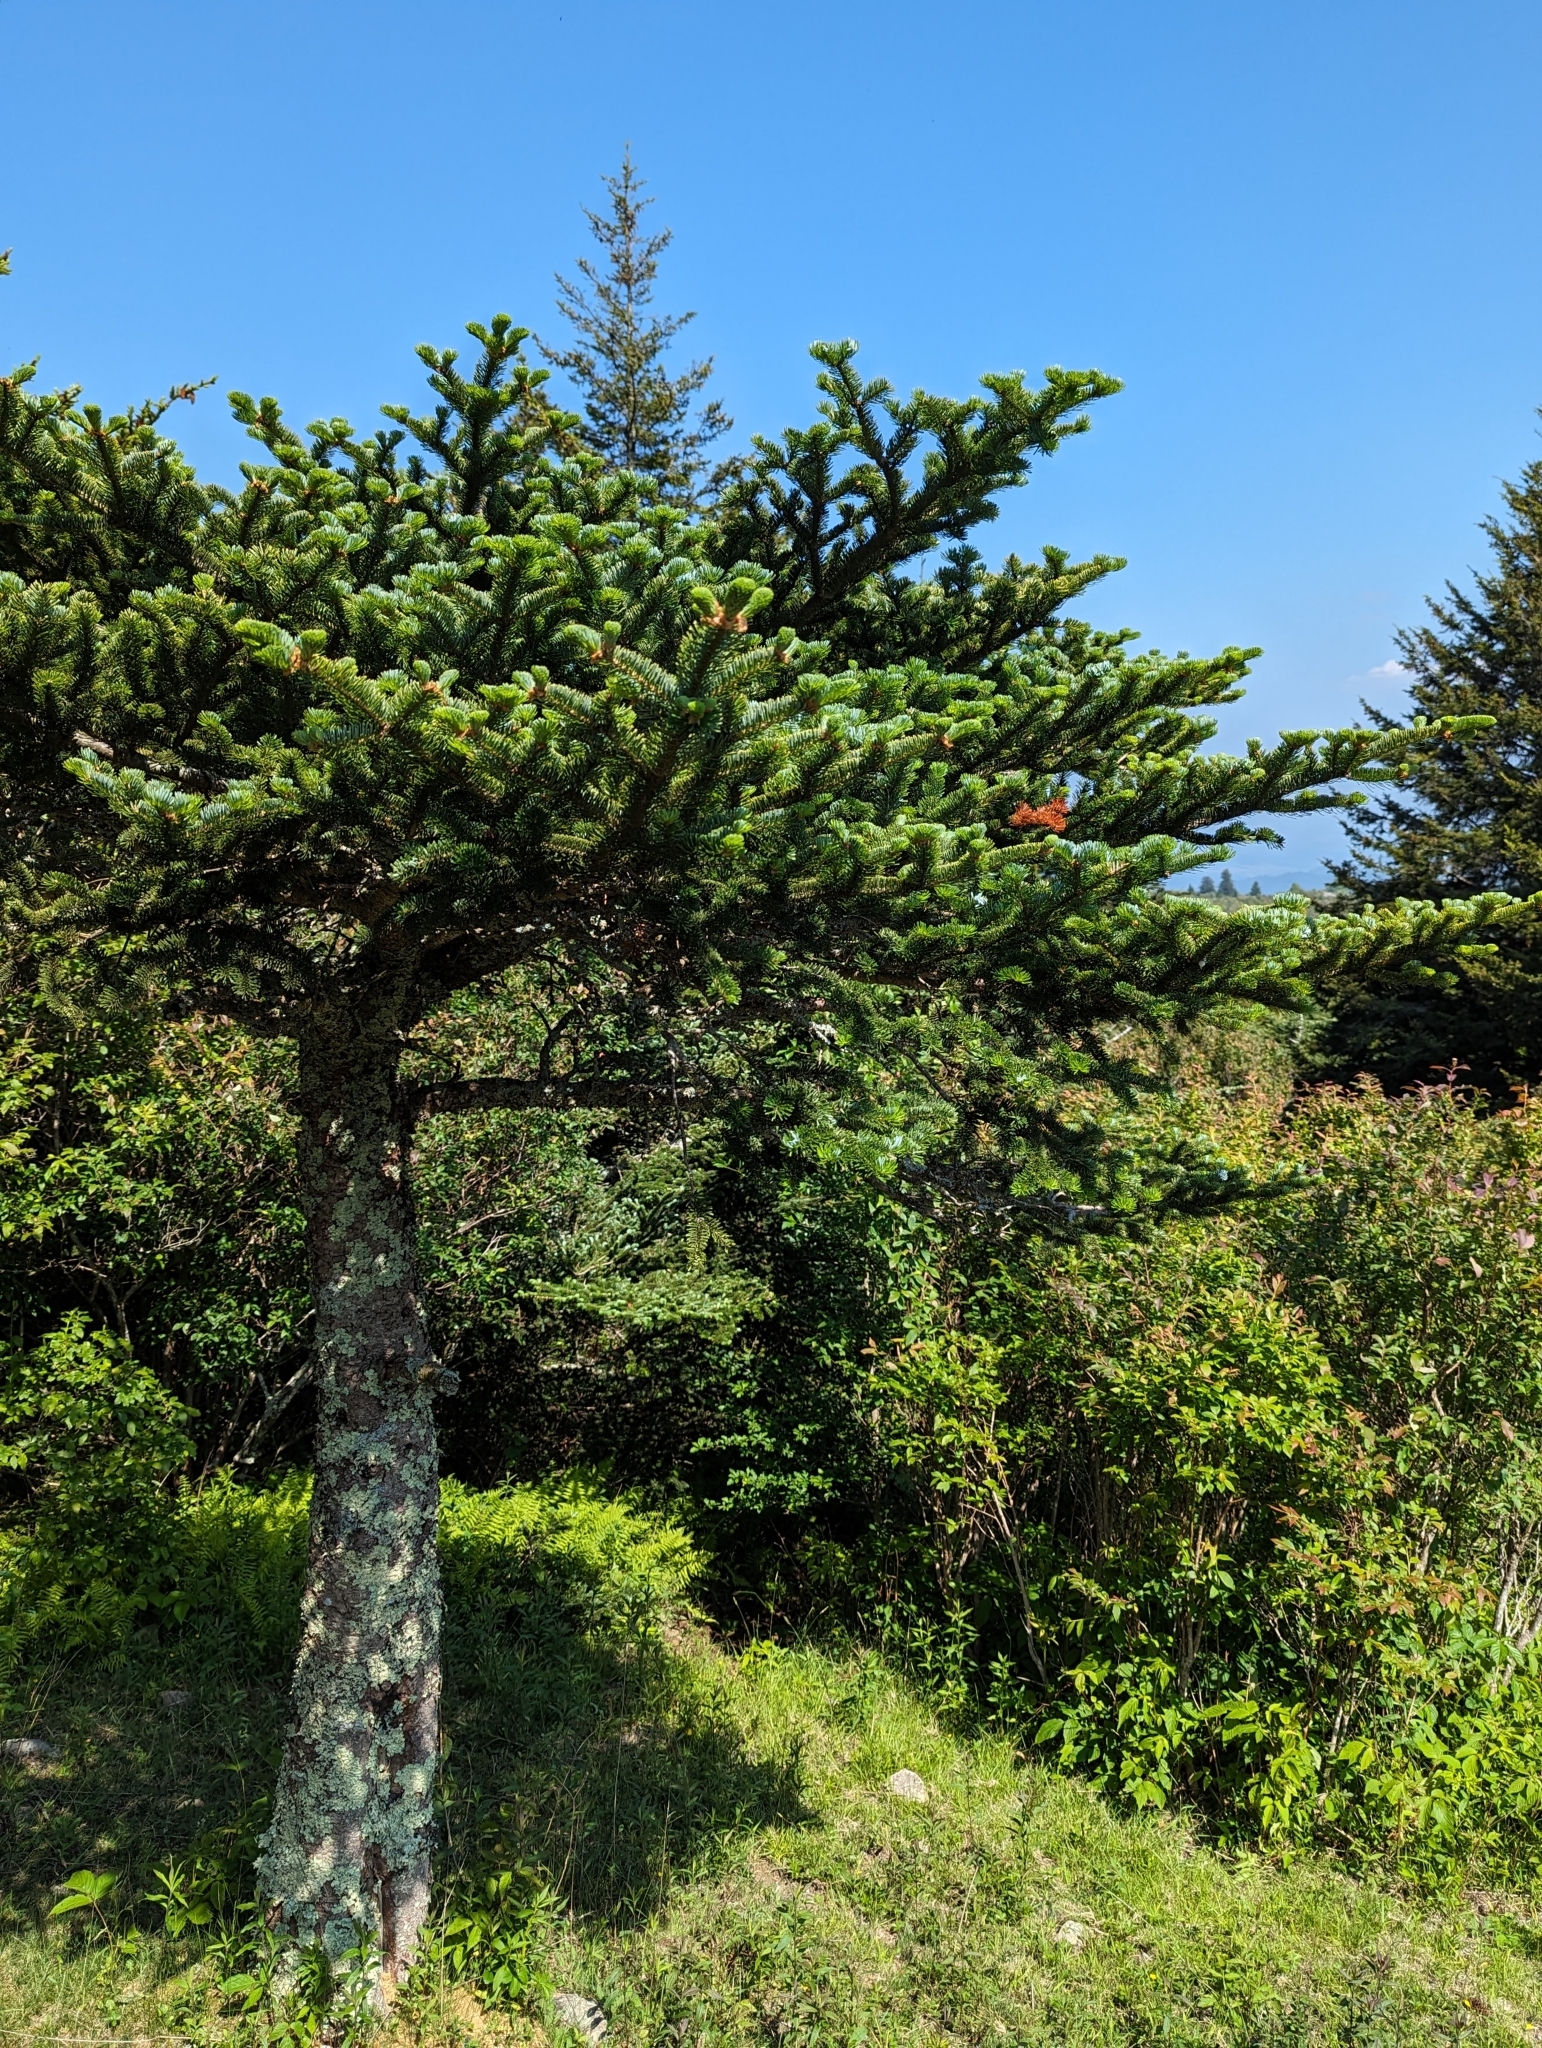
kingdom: Plantae
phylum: Tracheophyta
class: Pinopsida
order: Pinales
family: Pinaceae
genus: Abies
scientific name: Abies fraseri
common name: Fraser fir
